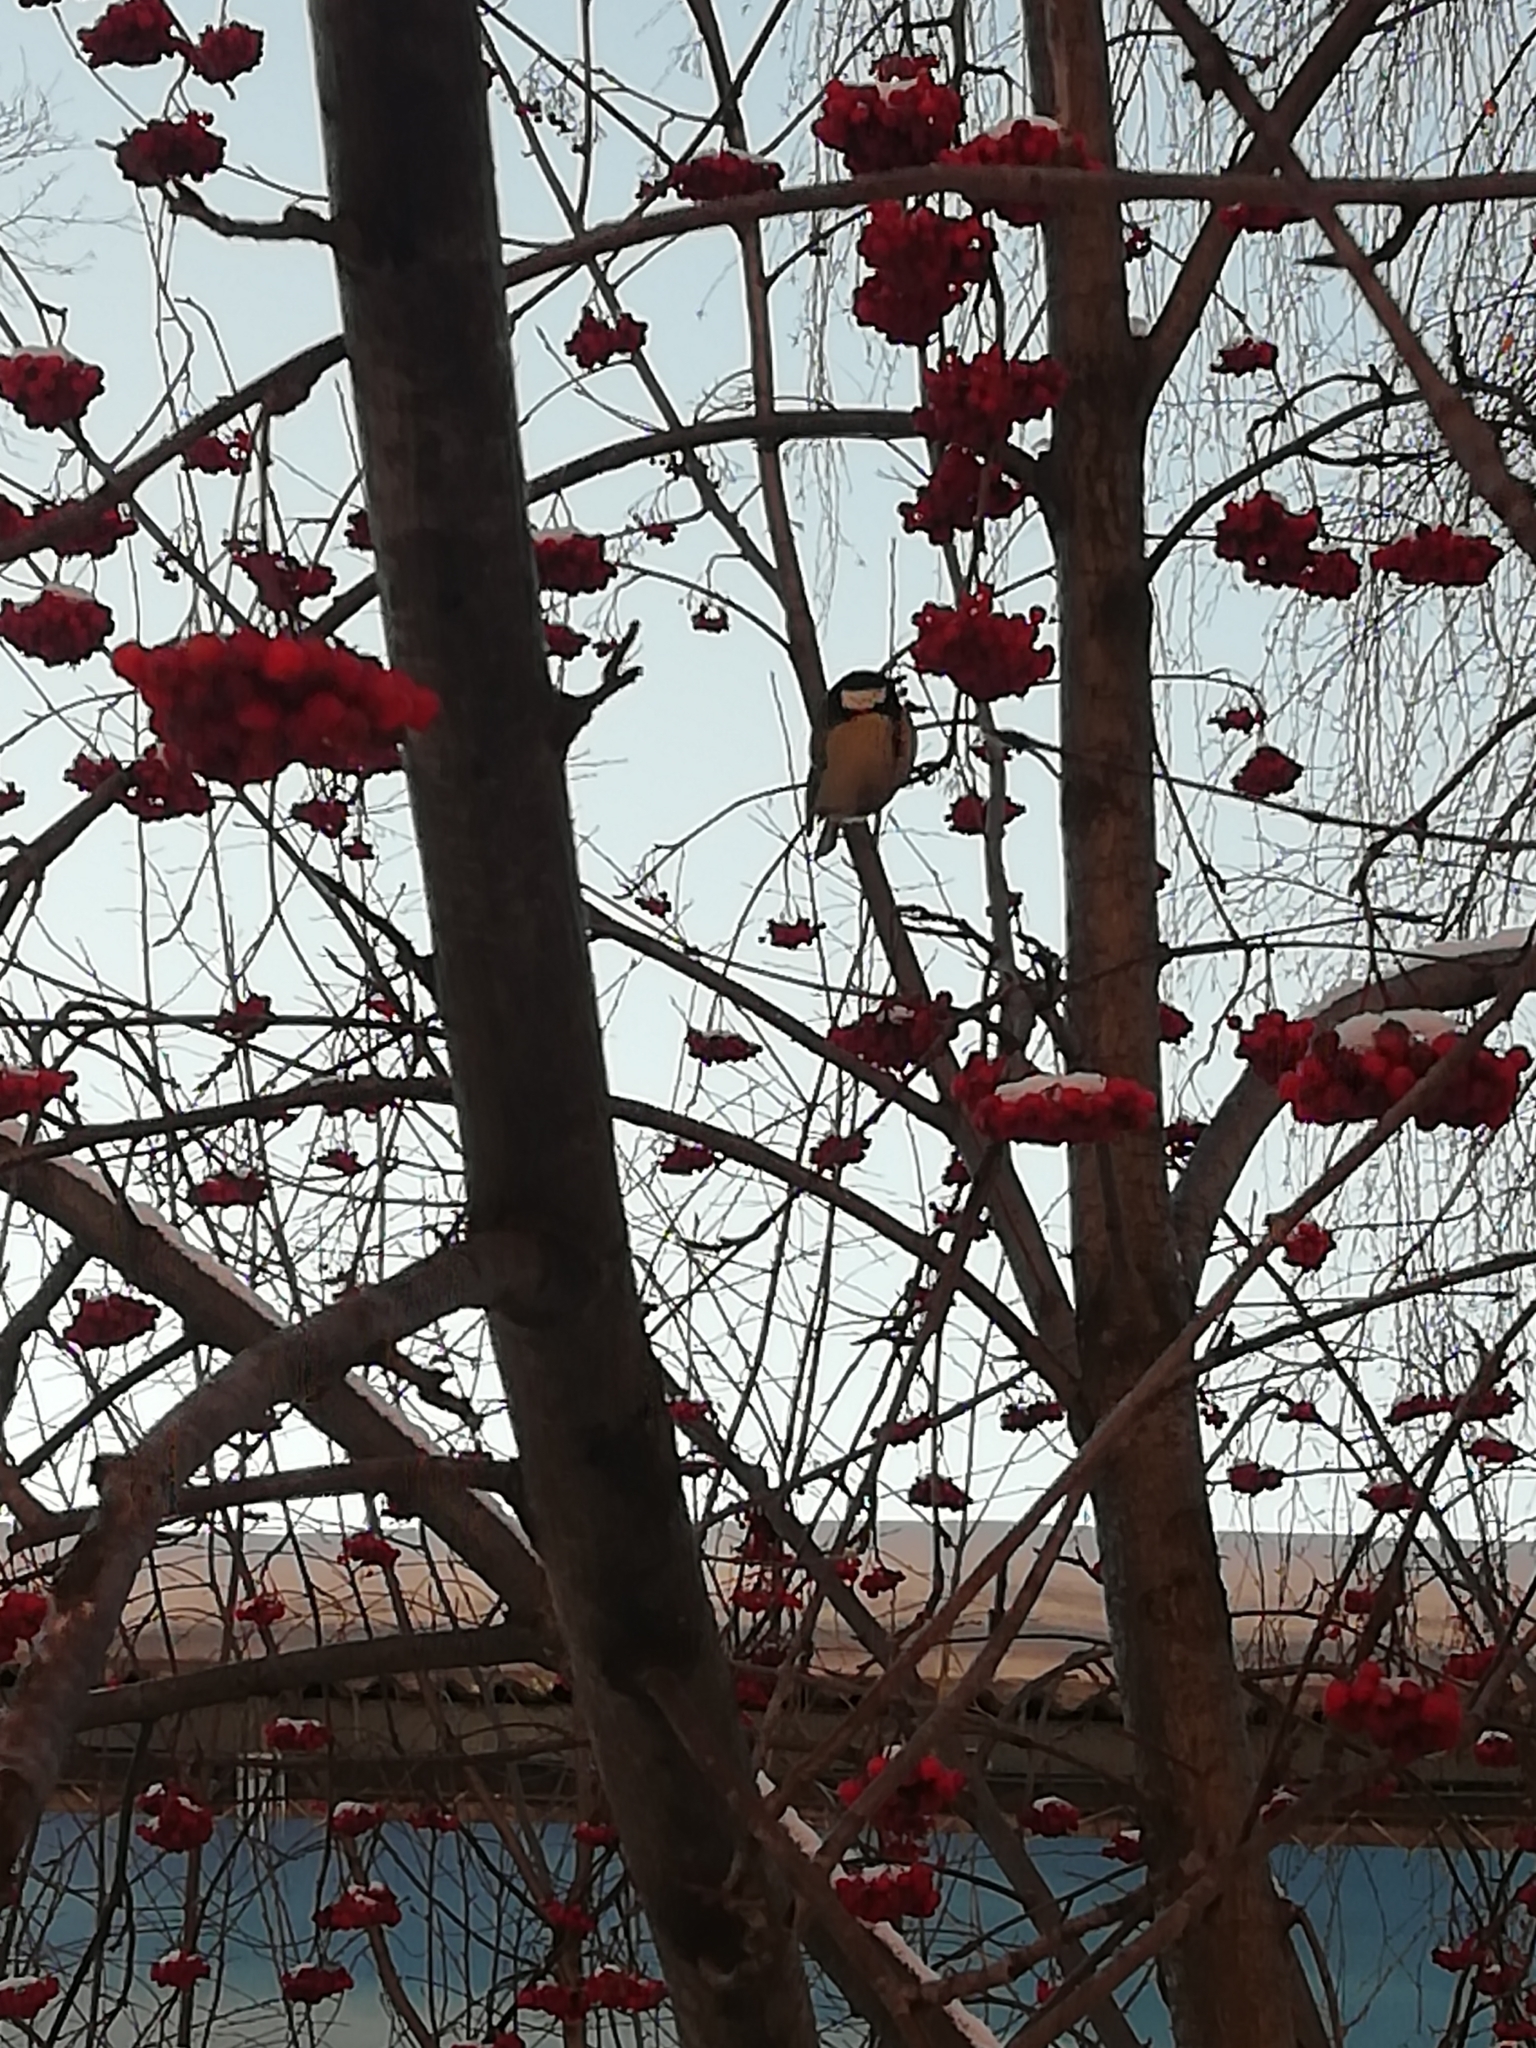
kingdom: Animalia
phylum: Chordata
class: Aves
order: Passeriformes
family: Paridae
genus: Parus
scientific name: Parus major
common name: Great tit
